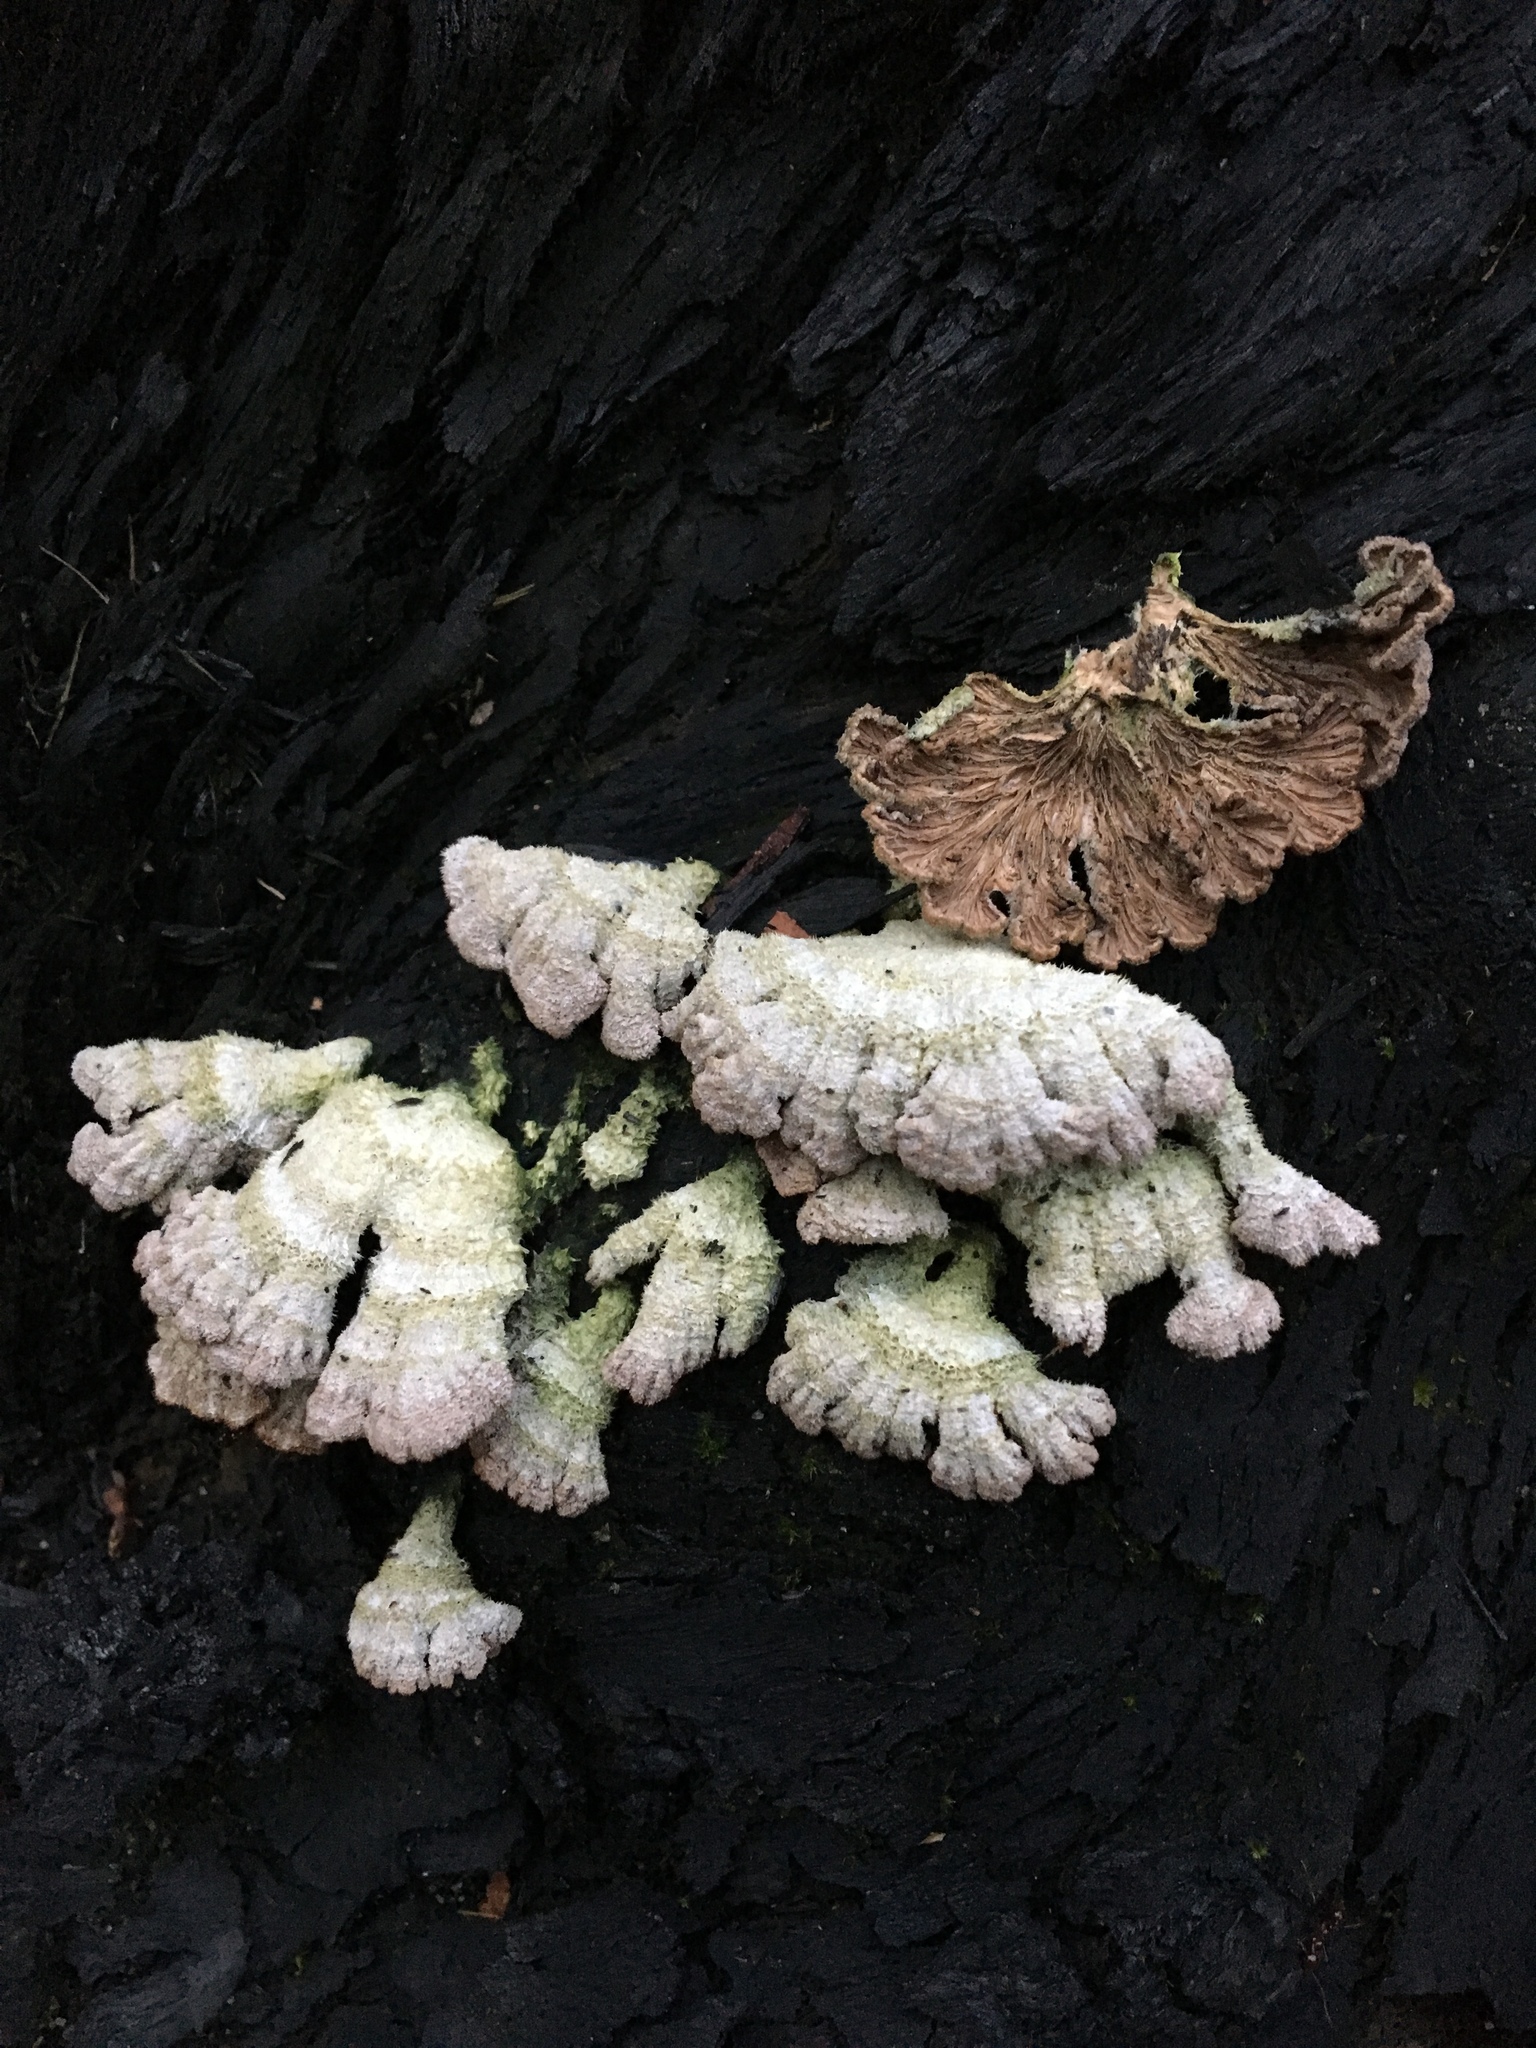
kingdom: Fungi
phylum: Basidiomycota
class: Agaricomycetes
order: Agaricales
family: Schizophyllaceae
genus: Schizophyllum
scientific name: Schizophyllum commune
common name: Common porecrust
